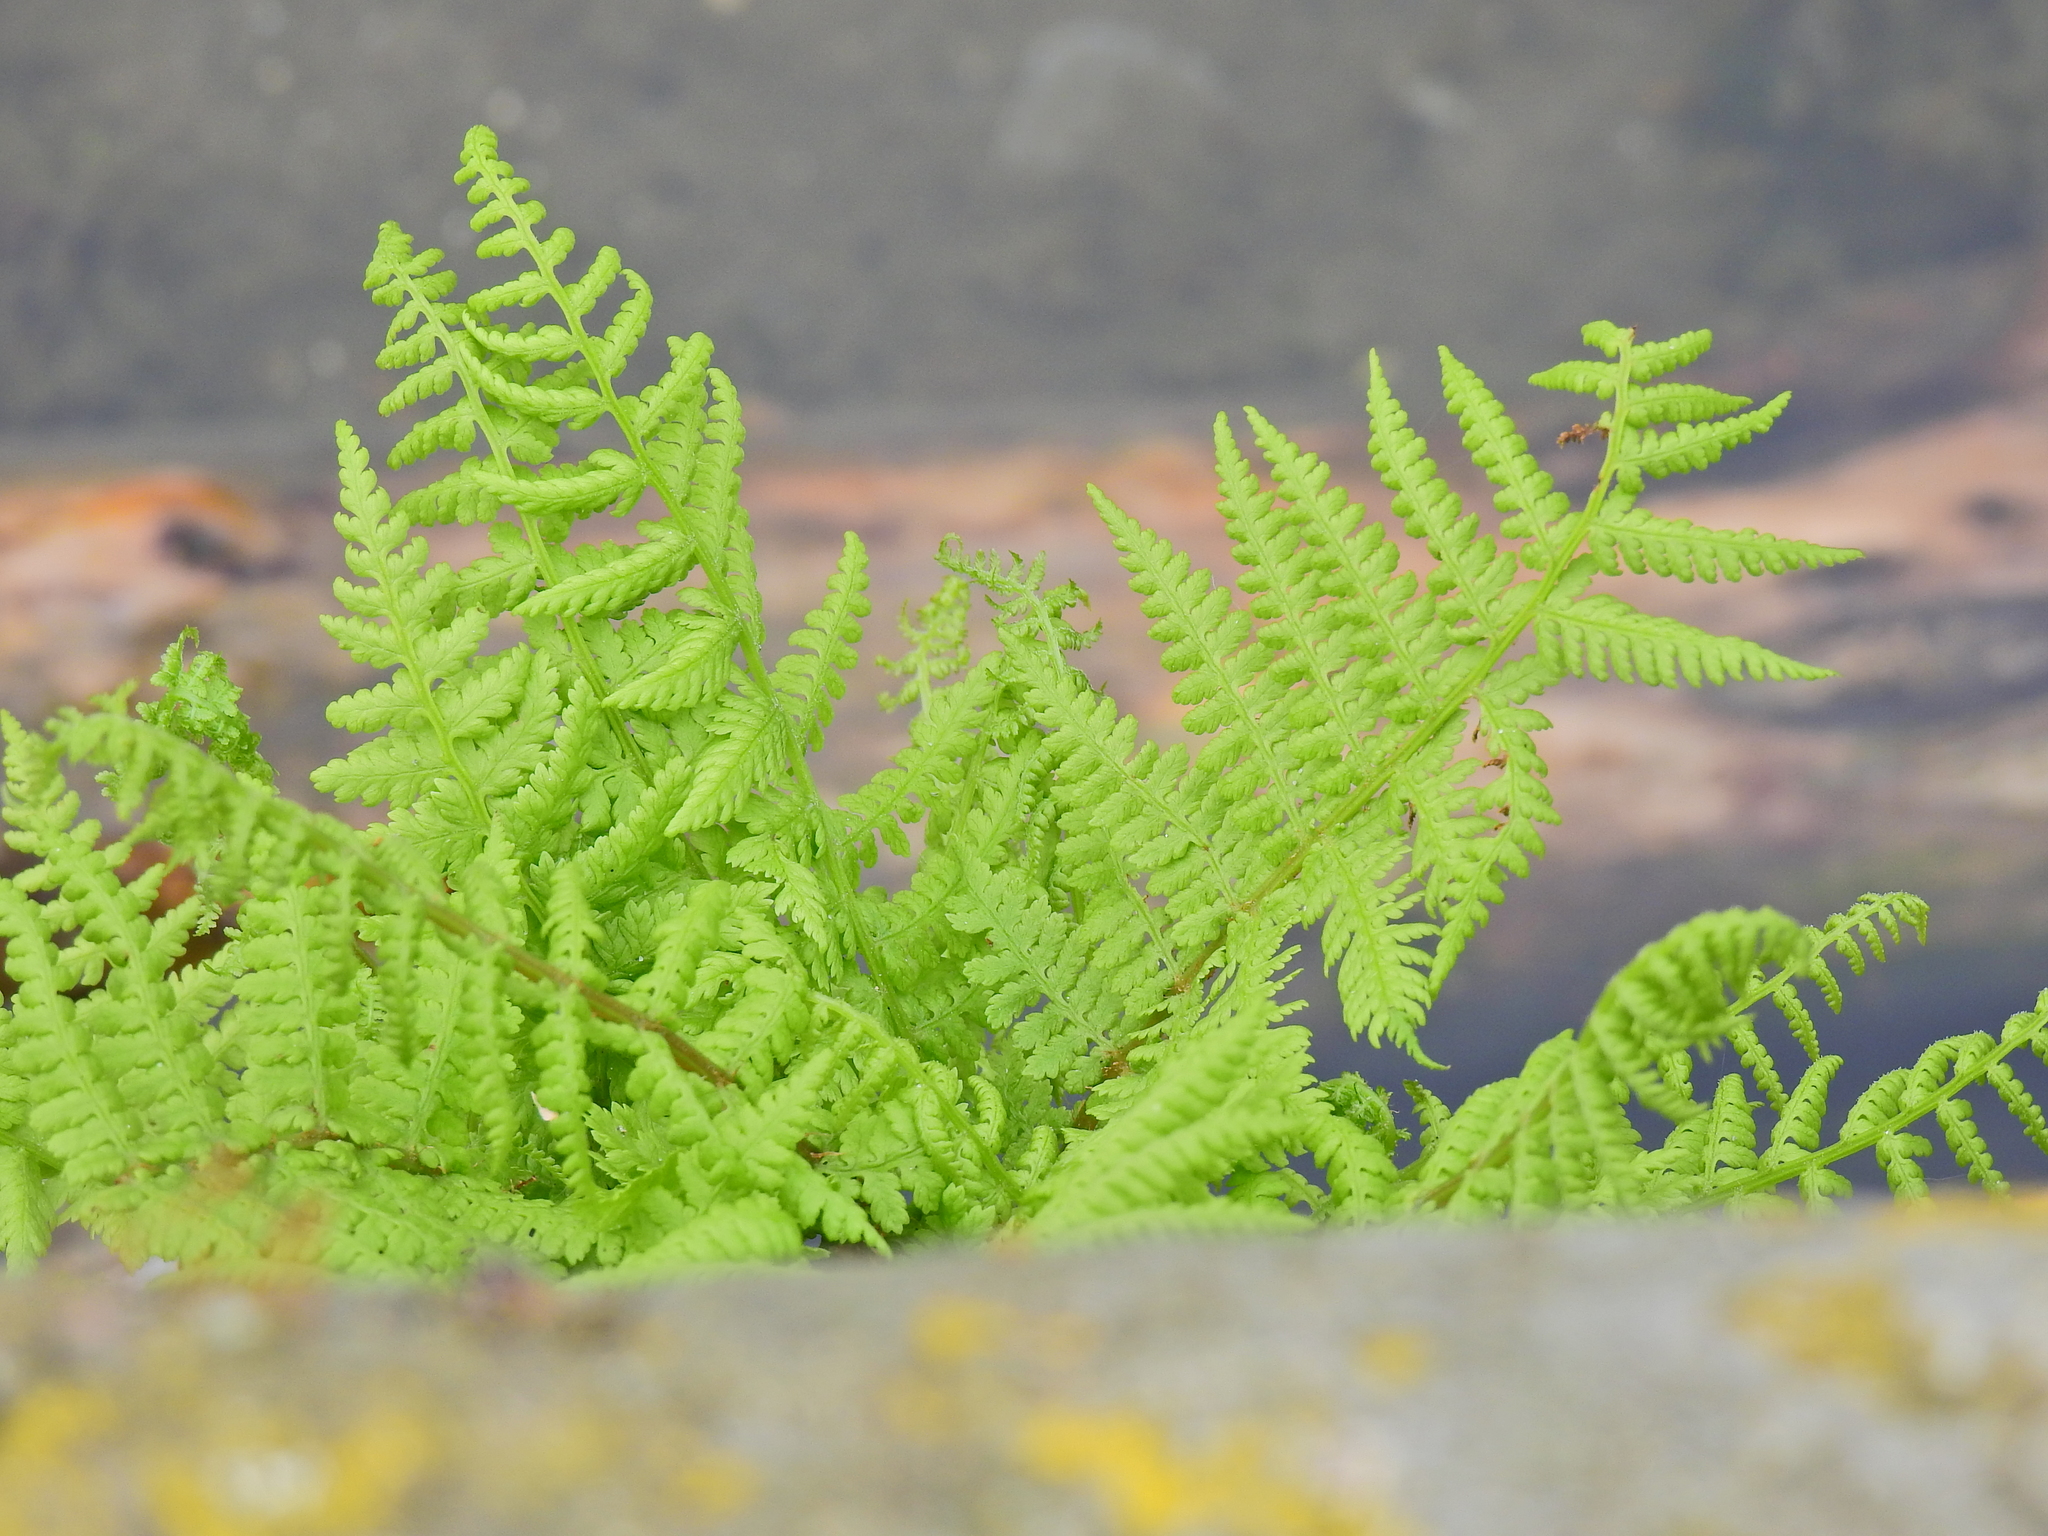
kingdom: Plantae
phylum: Tracheophyta
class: Polypodiopsida
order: Polypodiales
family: Athyriaceae
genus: Athyrium
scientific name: Athyrium filix-femina
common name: Lady fern
